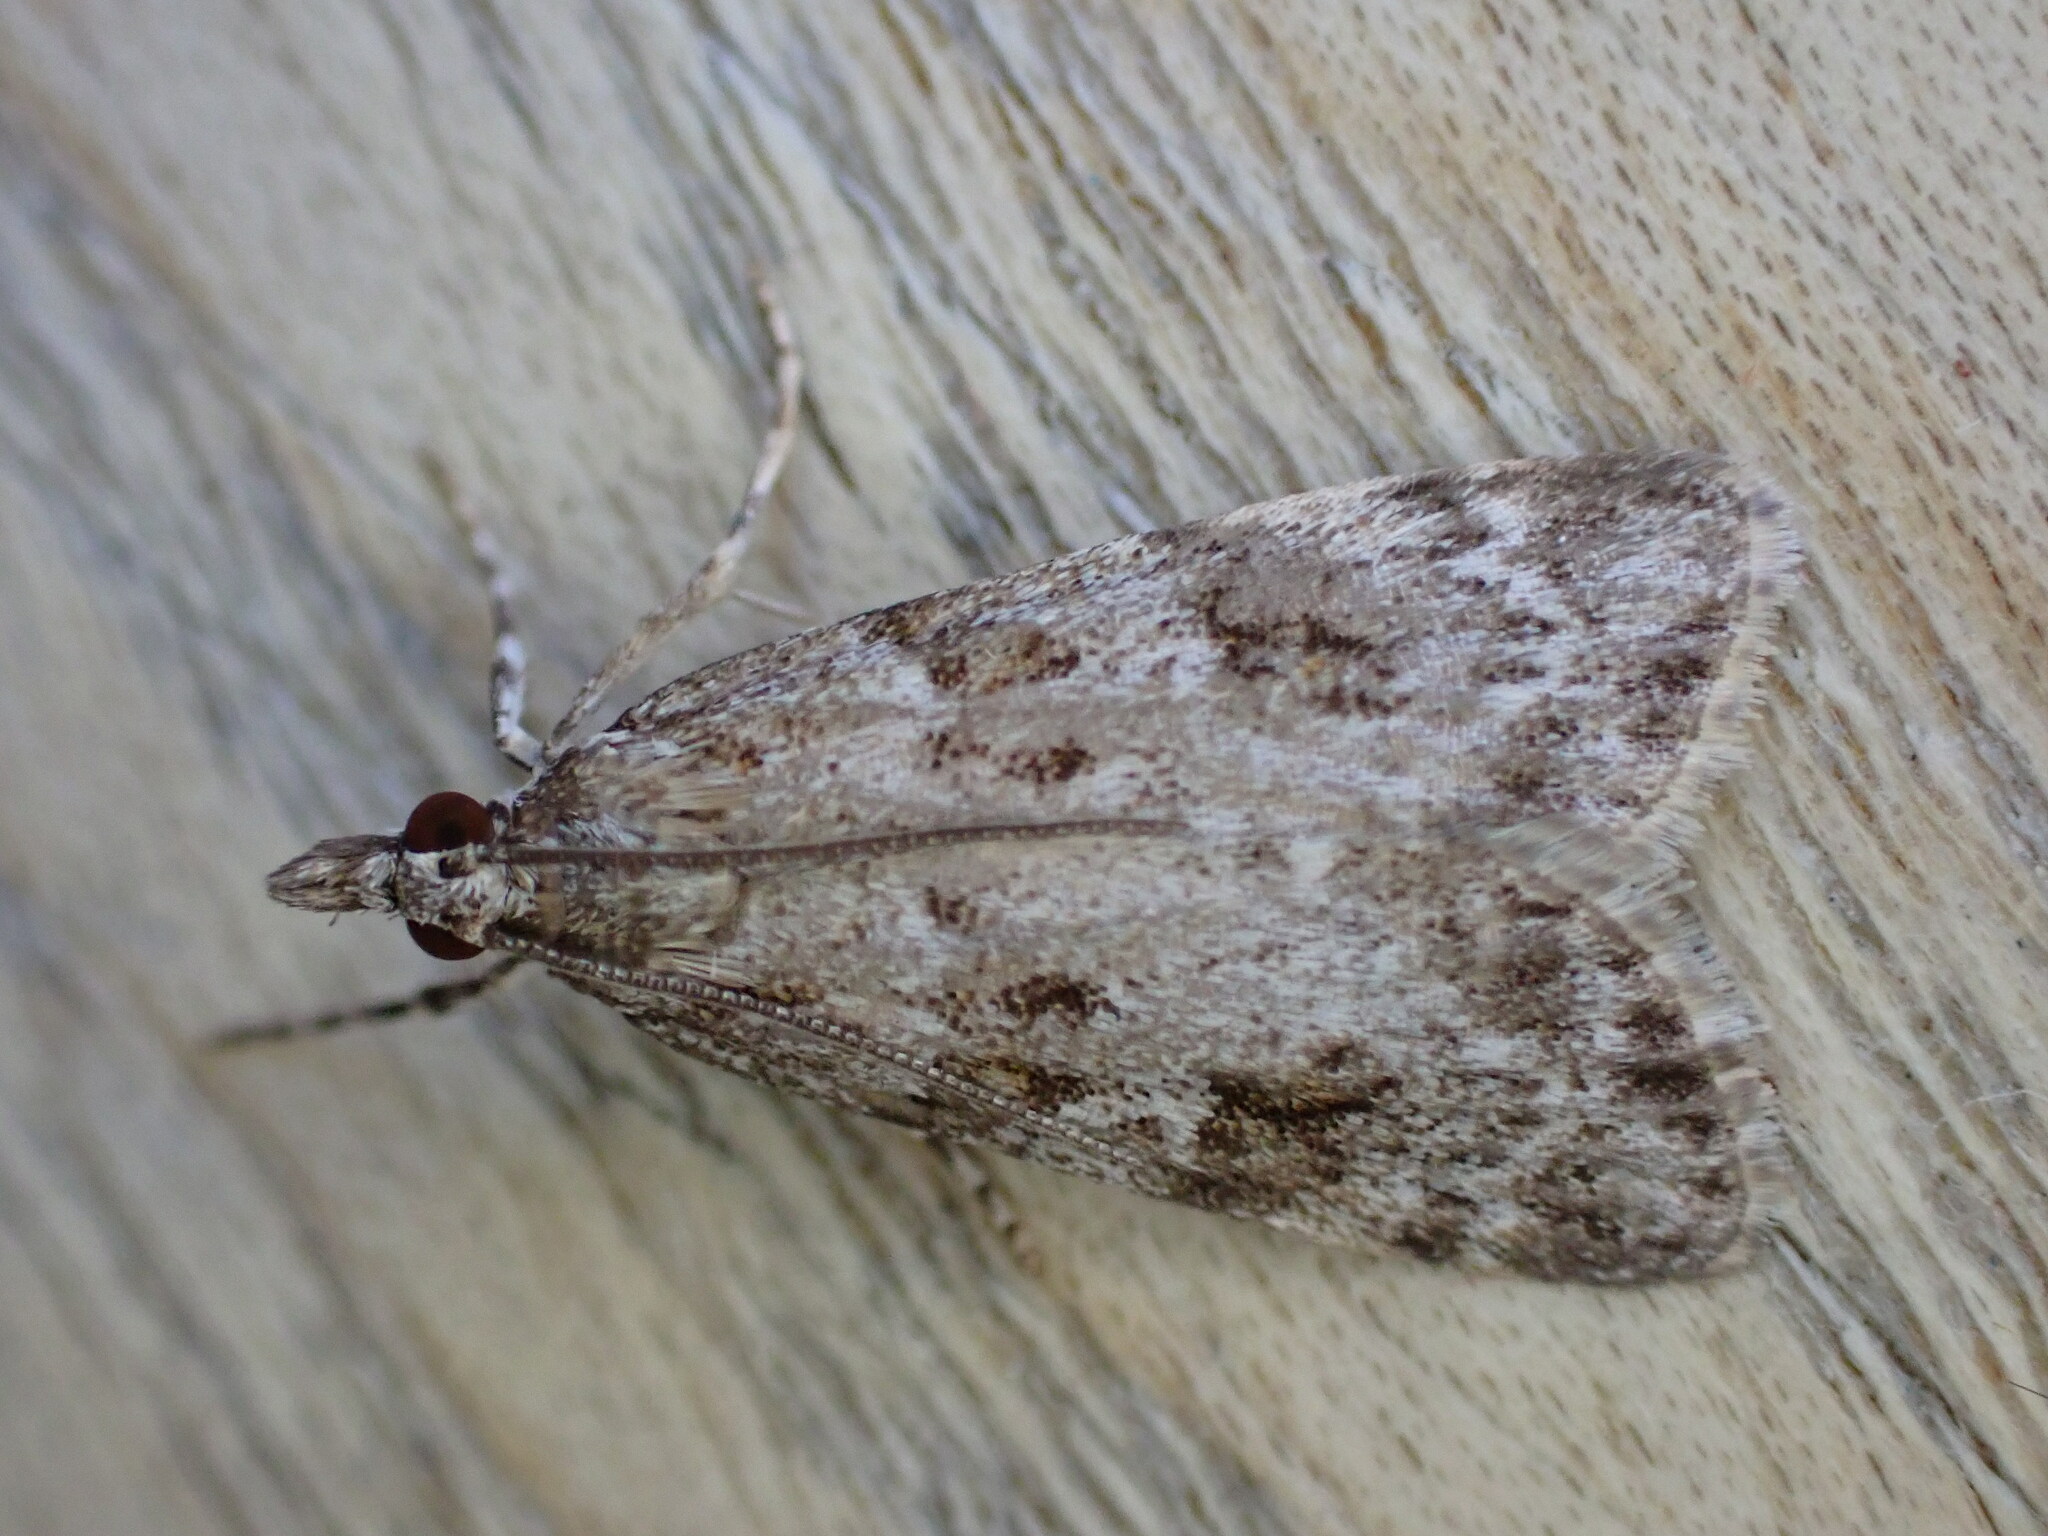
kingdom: Animalia
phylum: Arthropoda
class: Insecta
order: Lepidoptera
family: Crambidae
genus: Scoparia
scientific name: Scoparia ambigualis
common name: Common grey
